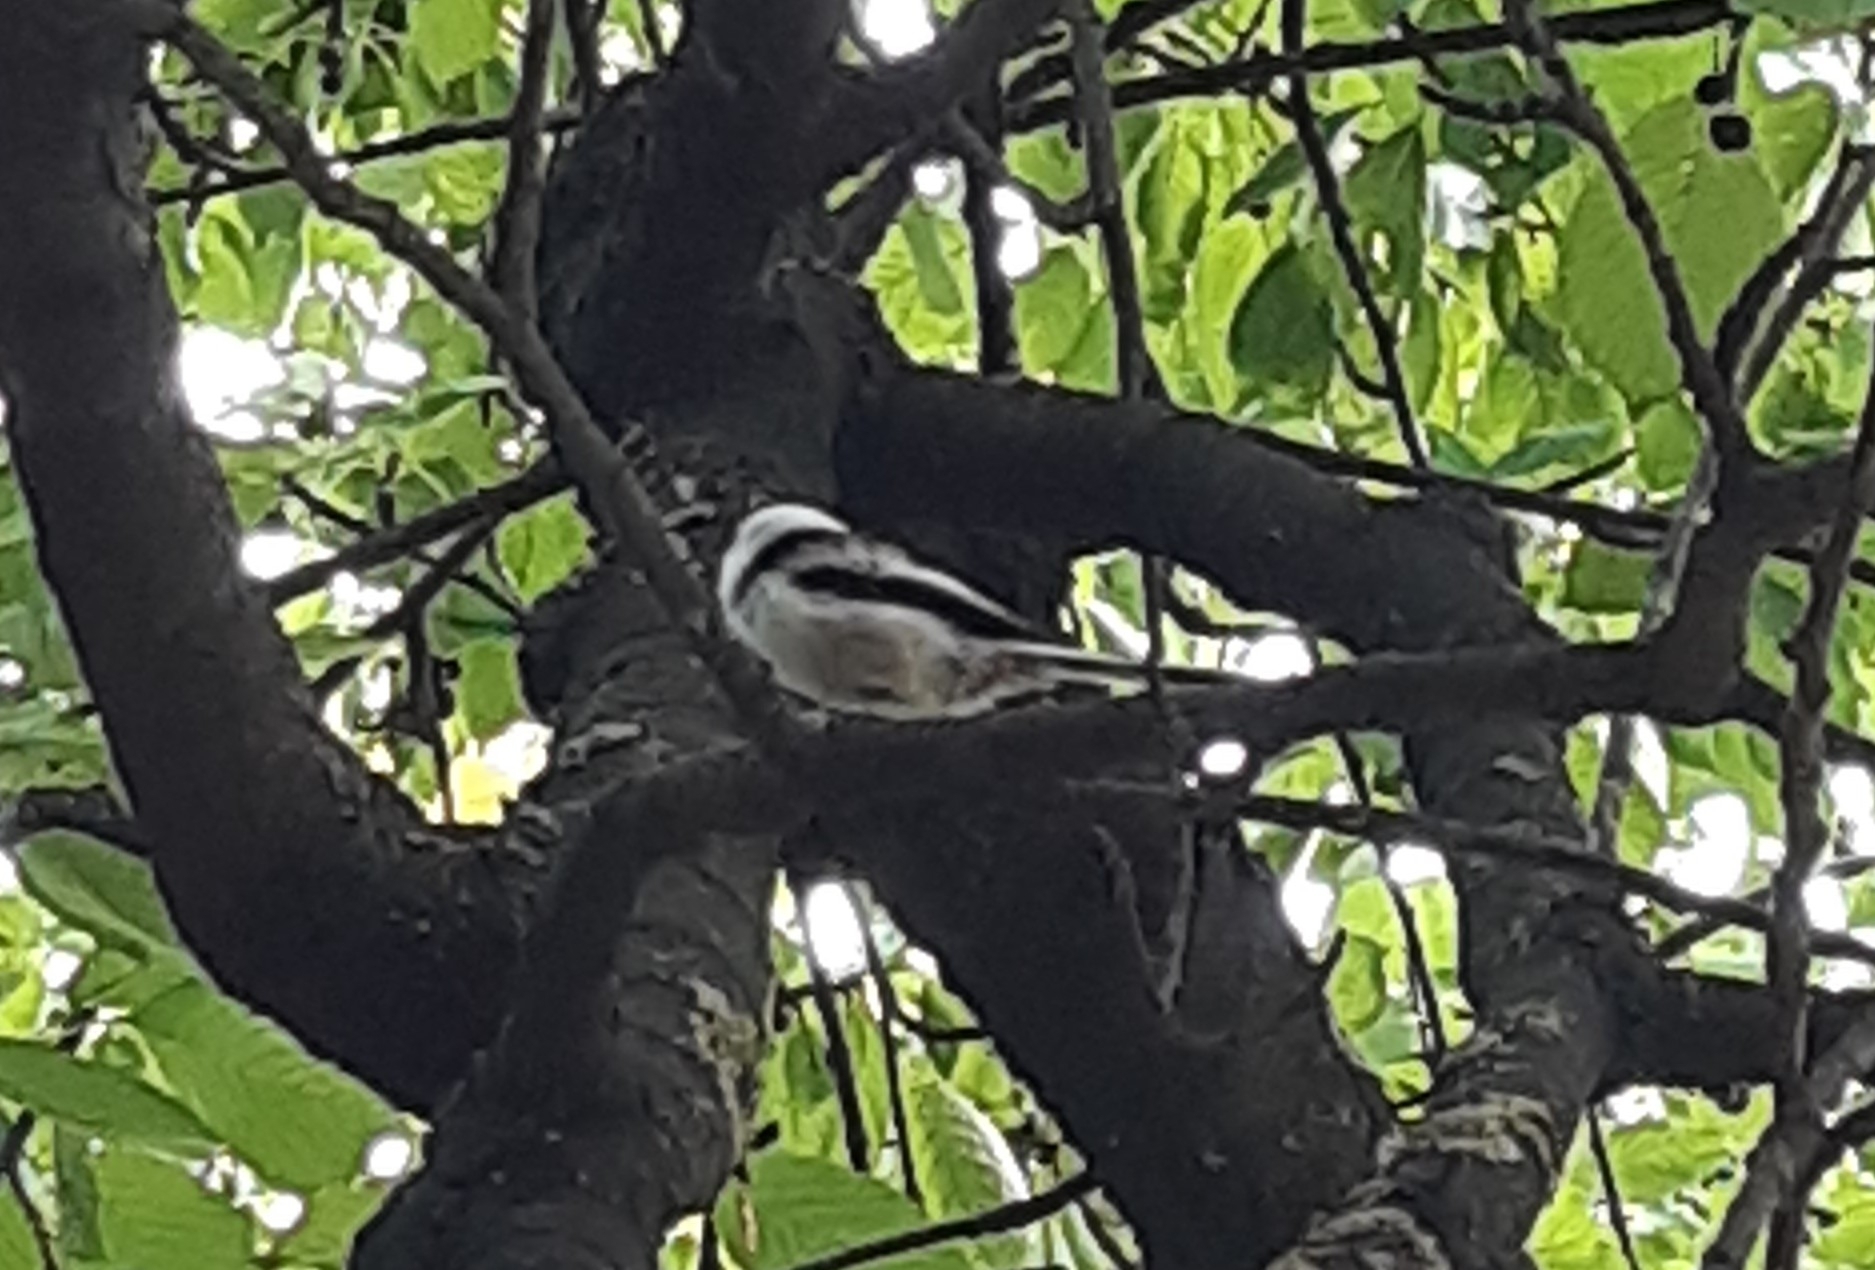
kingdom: Animalia
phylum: Chordata
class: Aves
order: Passeriformes
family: Aegithalidae
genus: Aegithalos
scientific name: Aegithalos caudatus
